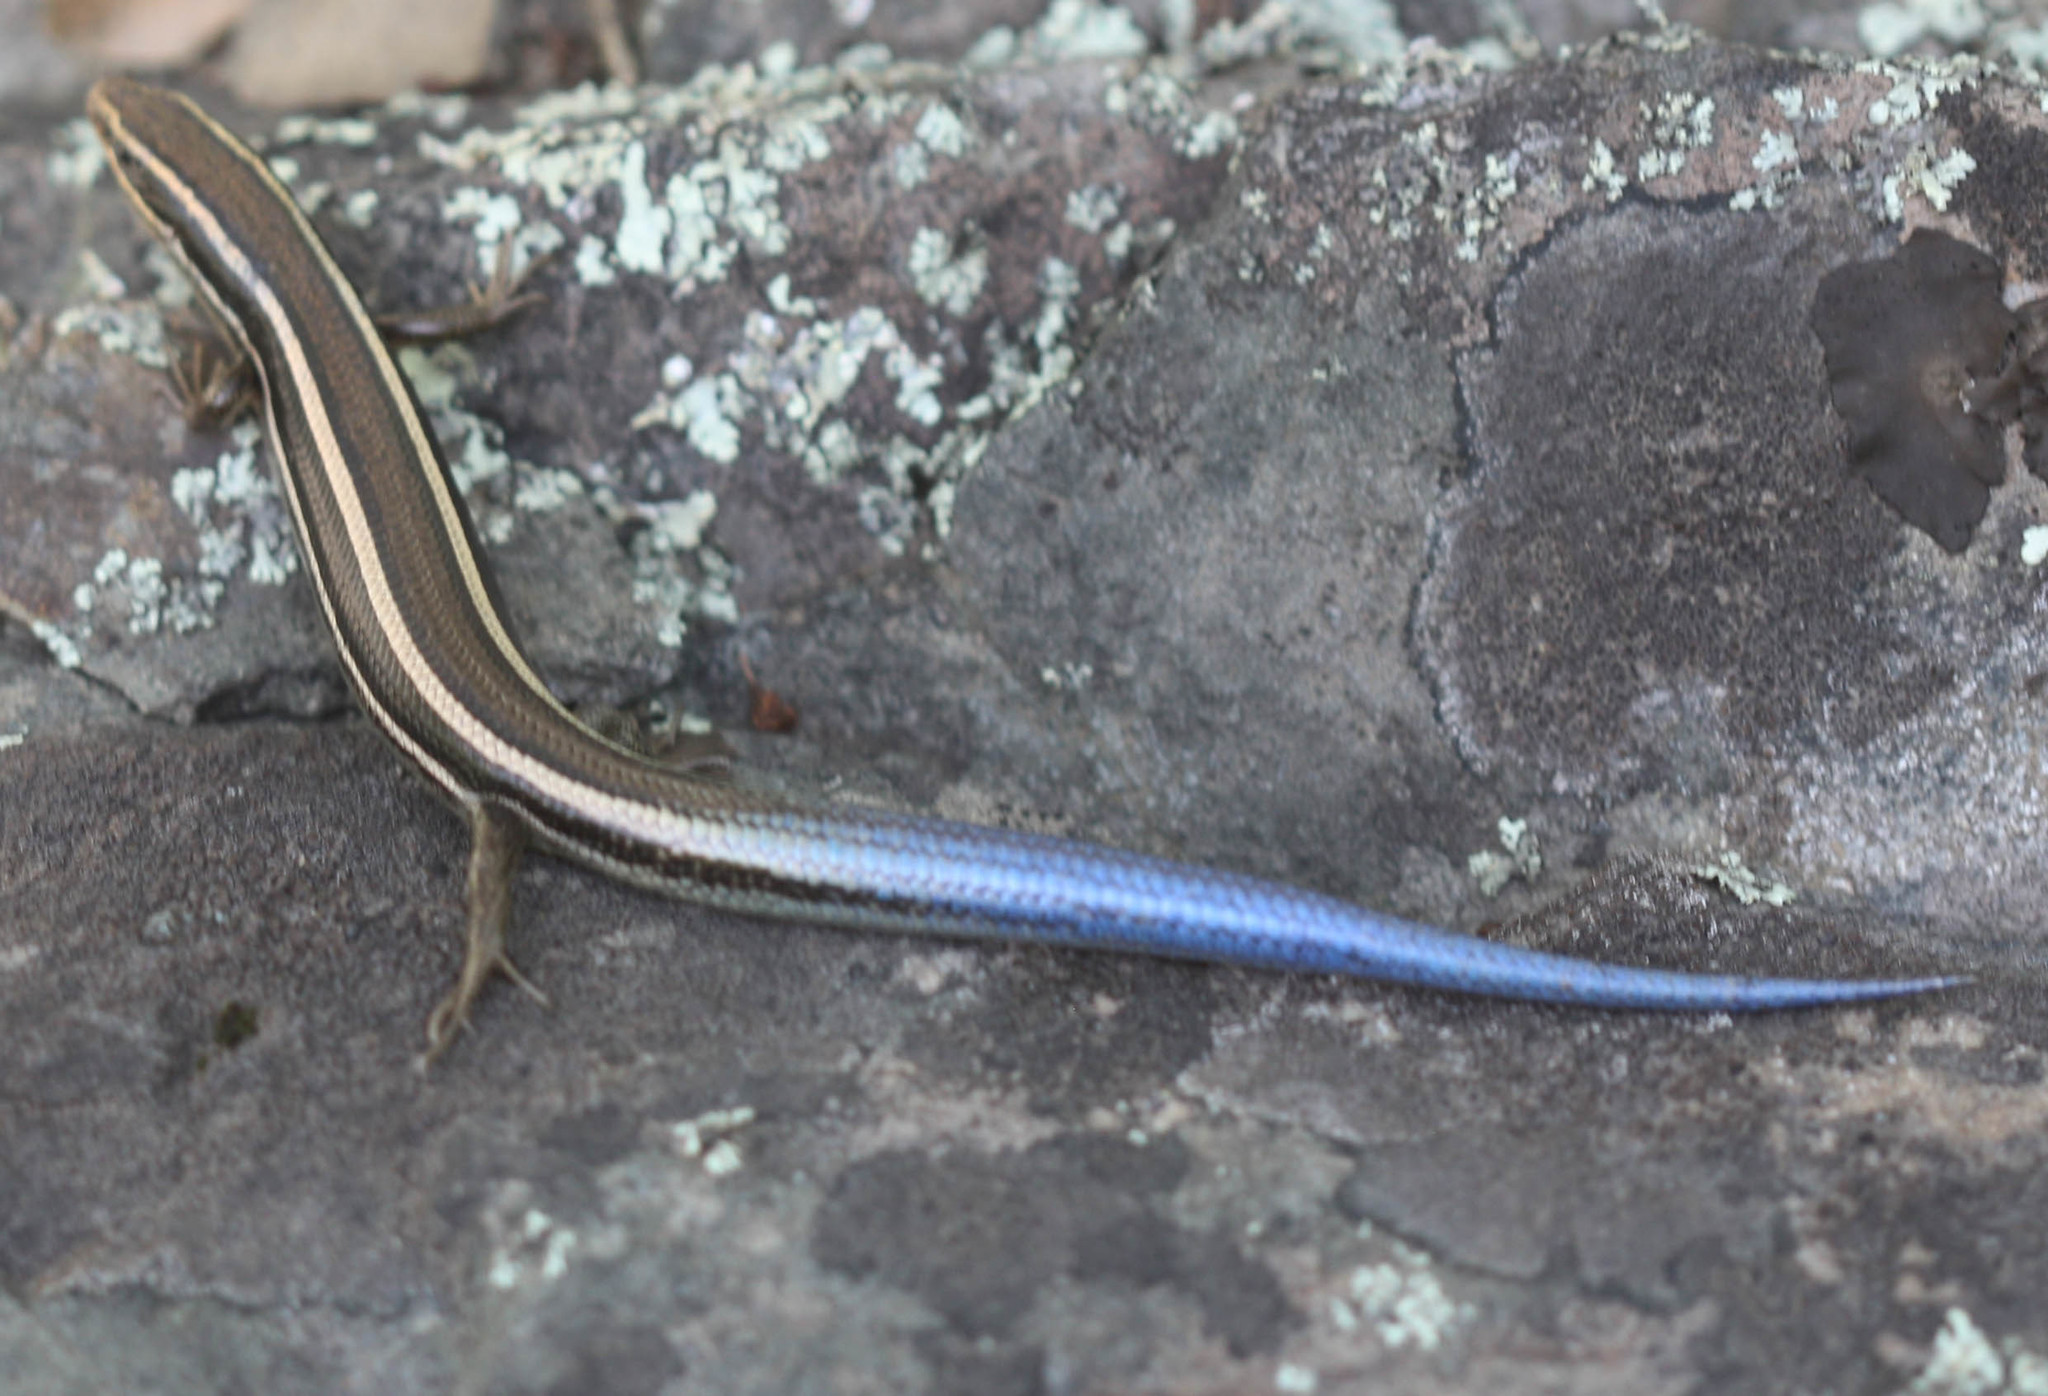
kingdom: Animalia
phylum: Chordata
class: Squamata
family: Scincidae
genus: Plestiodon
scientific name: Plestiodon skiltonianus
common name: Coronado island skink [interparietalis]
